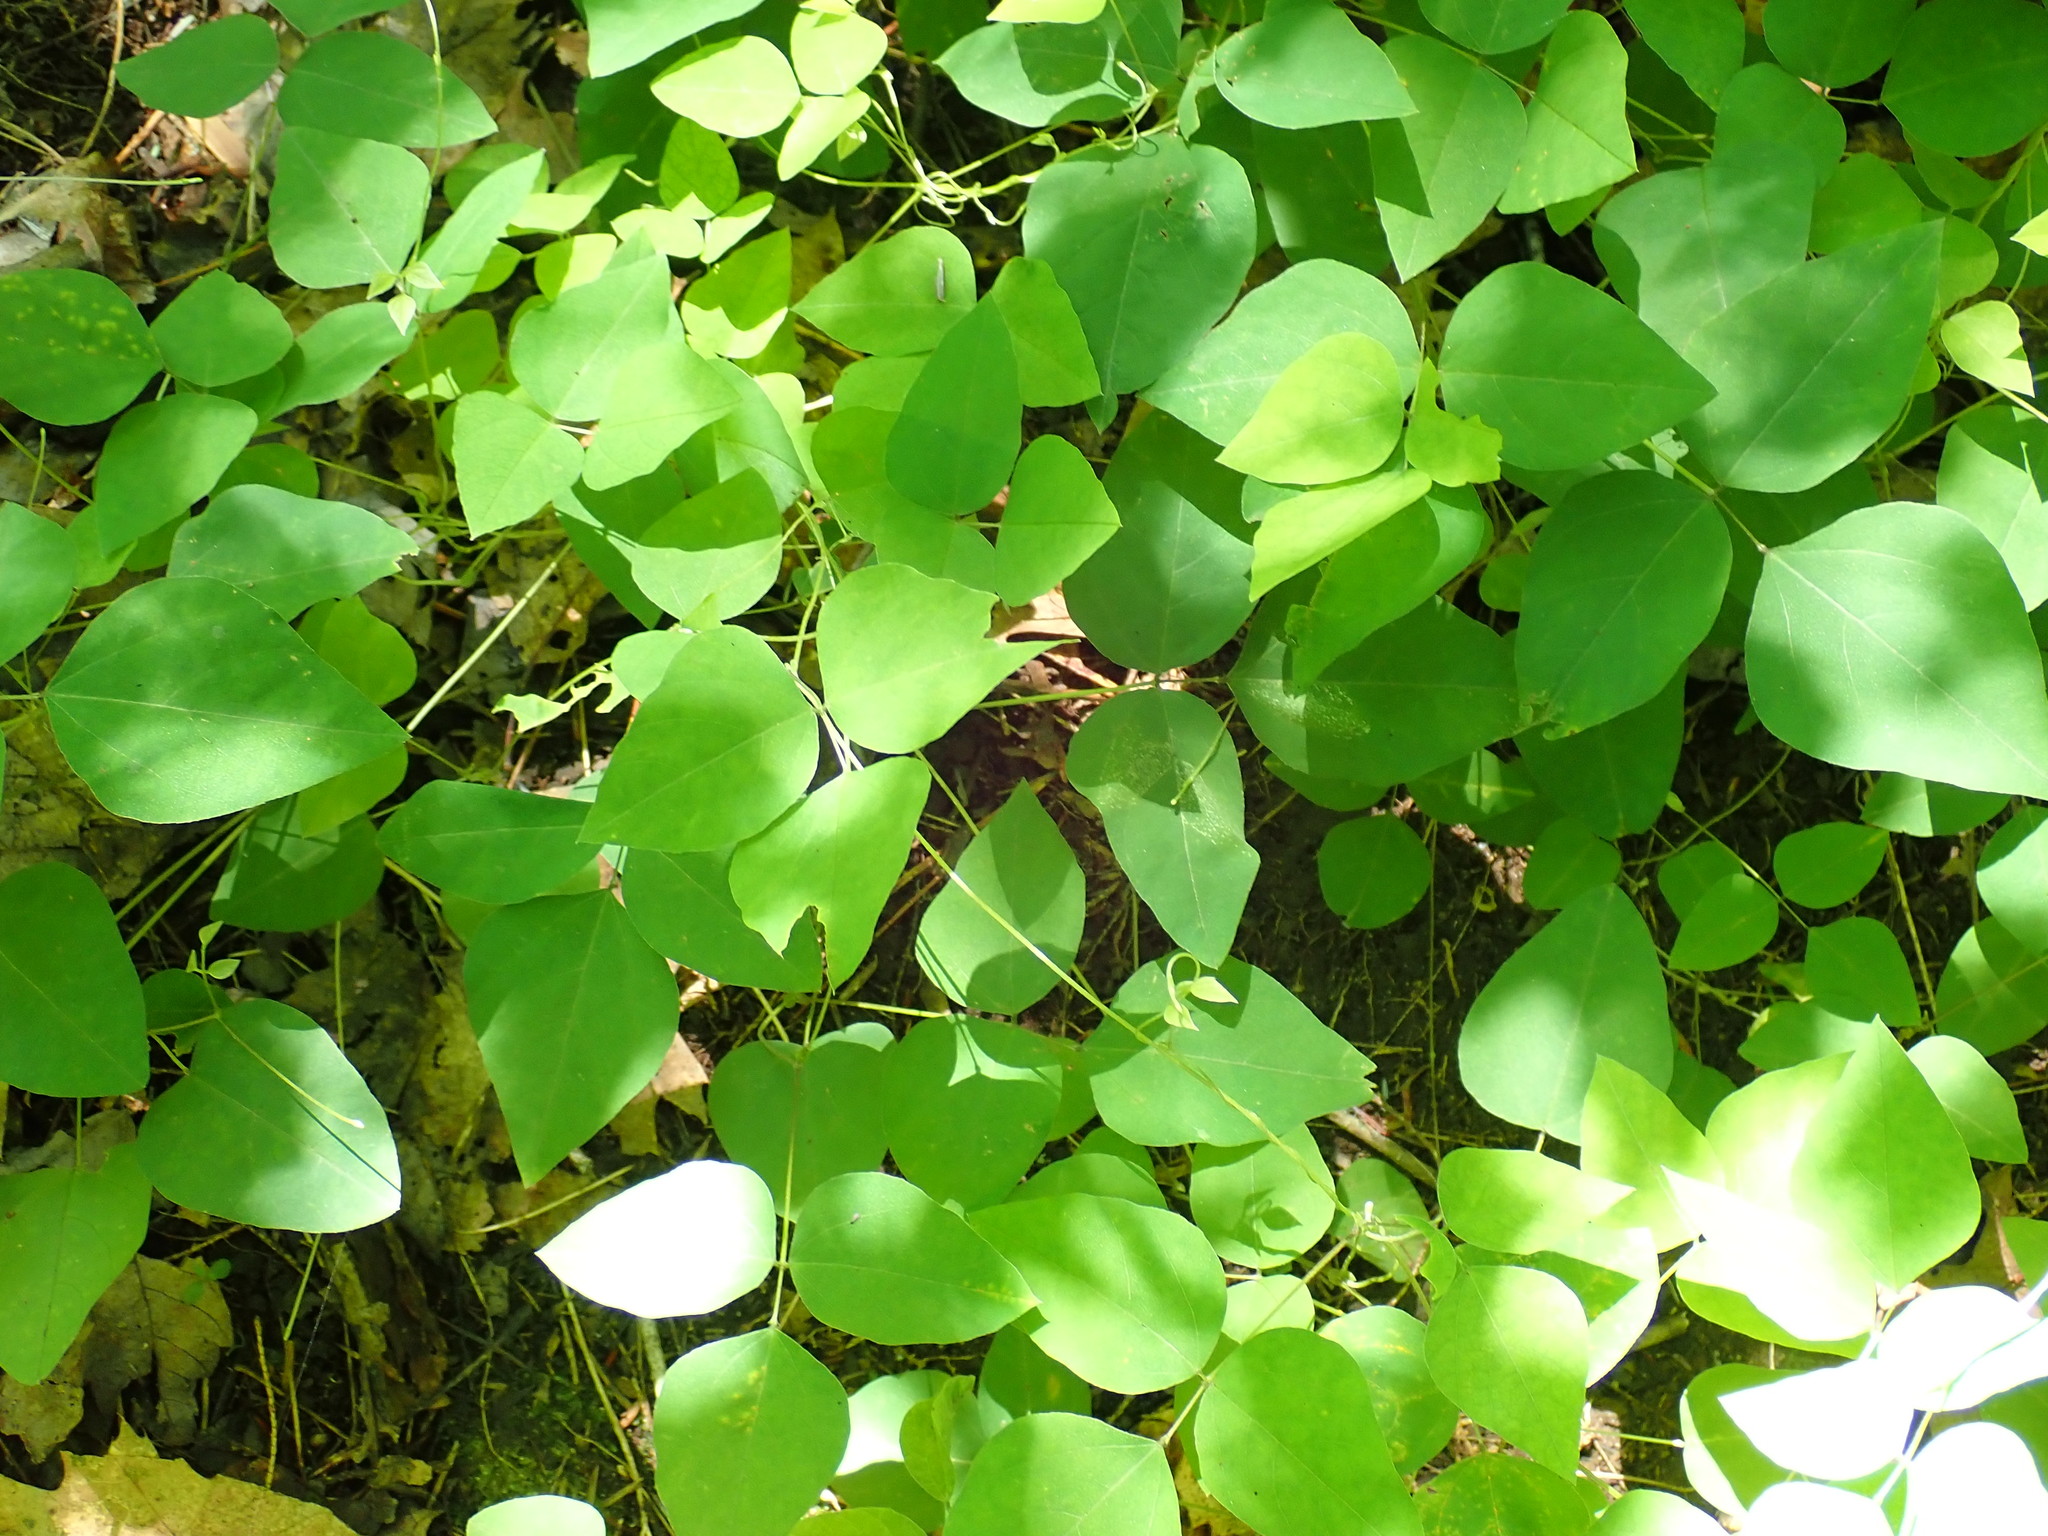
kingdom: Plantae
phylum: Tracheophyta
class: Magnoliopsida
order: Fabales
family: Fabaceae
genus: Amphicarpaea
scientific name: Amphicarpaea bracteata
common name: American hog peanut
